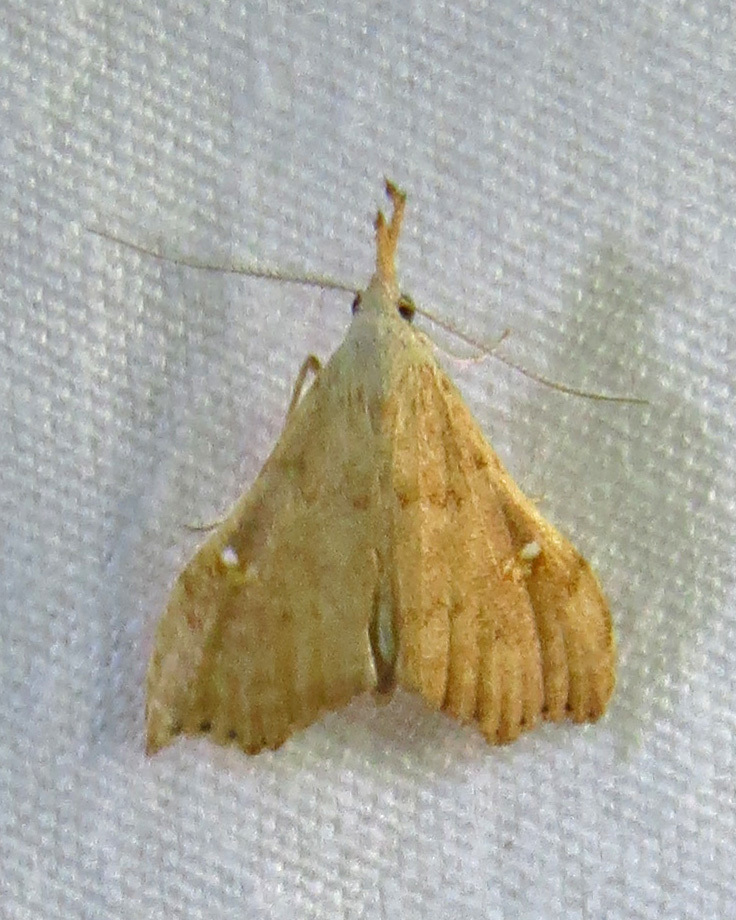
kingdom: Animalia
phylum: Arthropoda
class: Insecta
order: Lepidoptera
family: Erebidae
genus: Redectis
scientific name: Redectis vitrea
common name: White-spotted redectis
